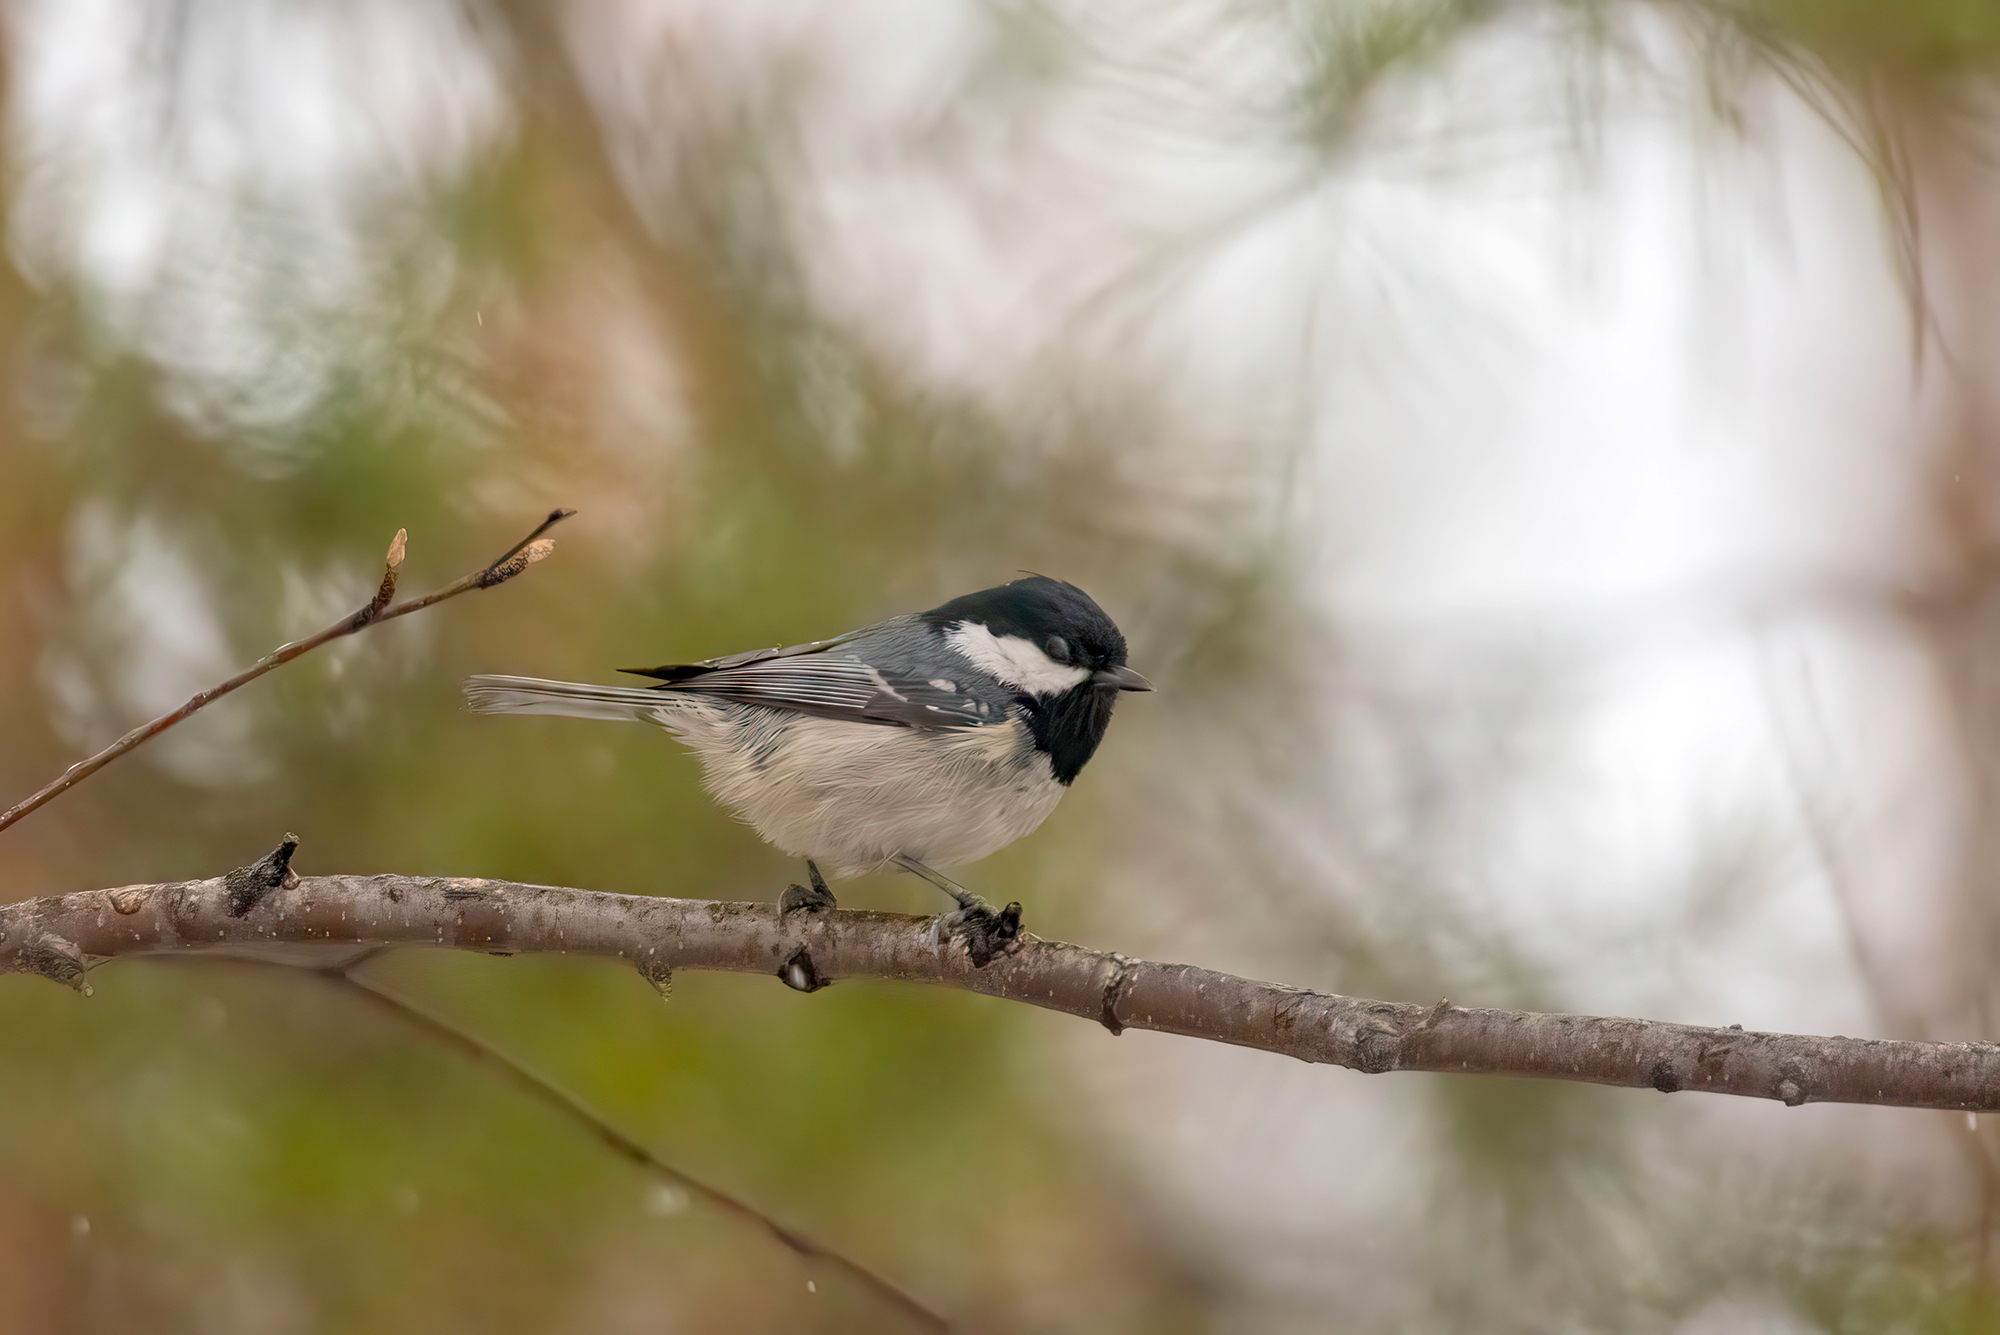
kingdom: Animalia
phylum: Chordata
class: Aves
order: Passeriformes
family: Paridae
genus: Periparus
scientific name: Periparus ater
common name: Coal tit
